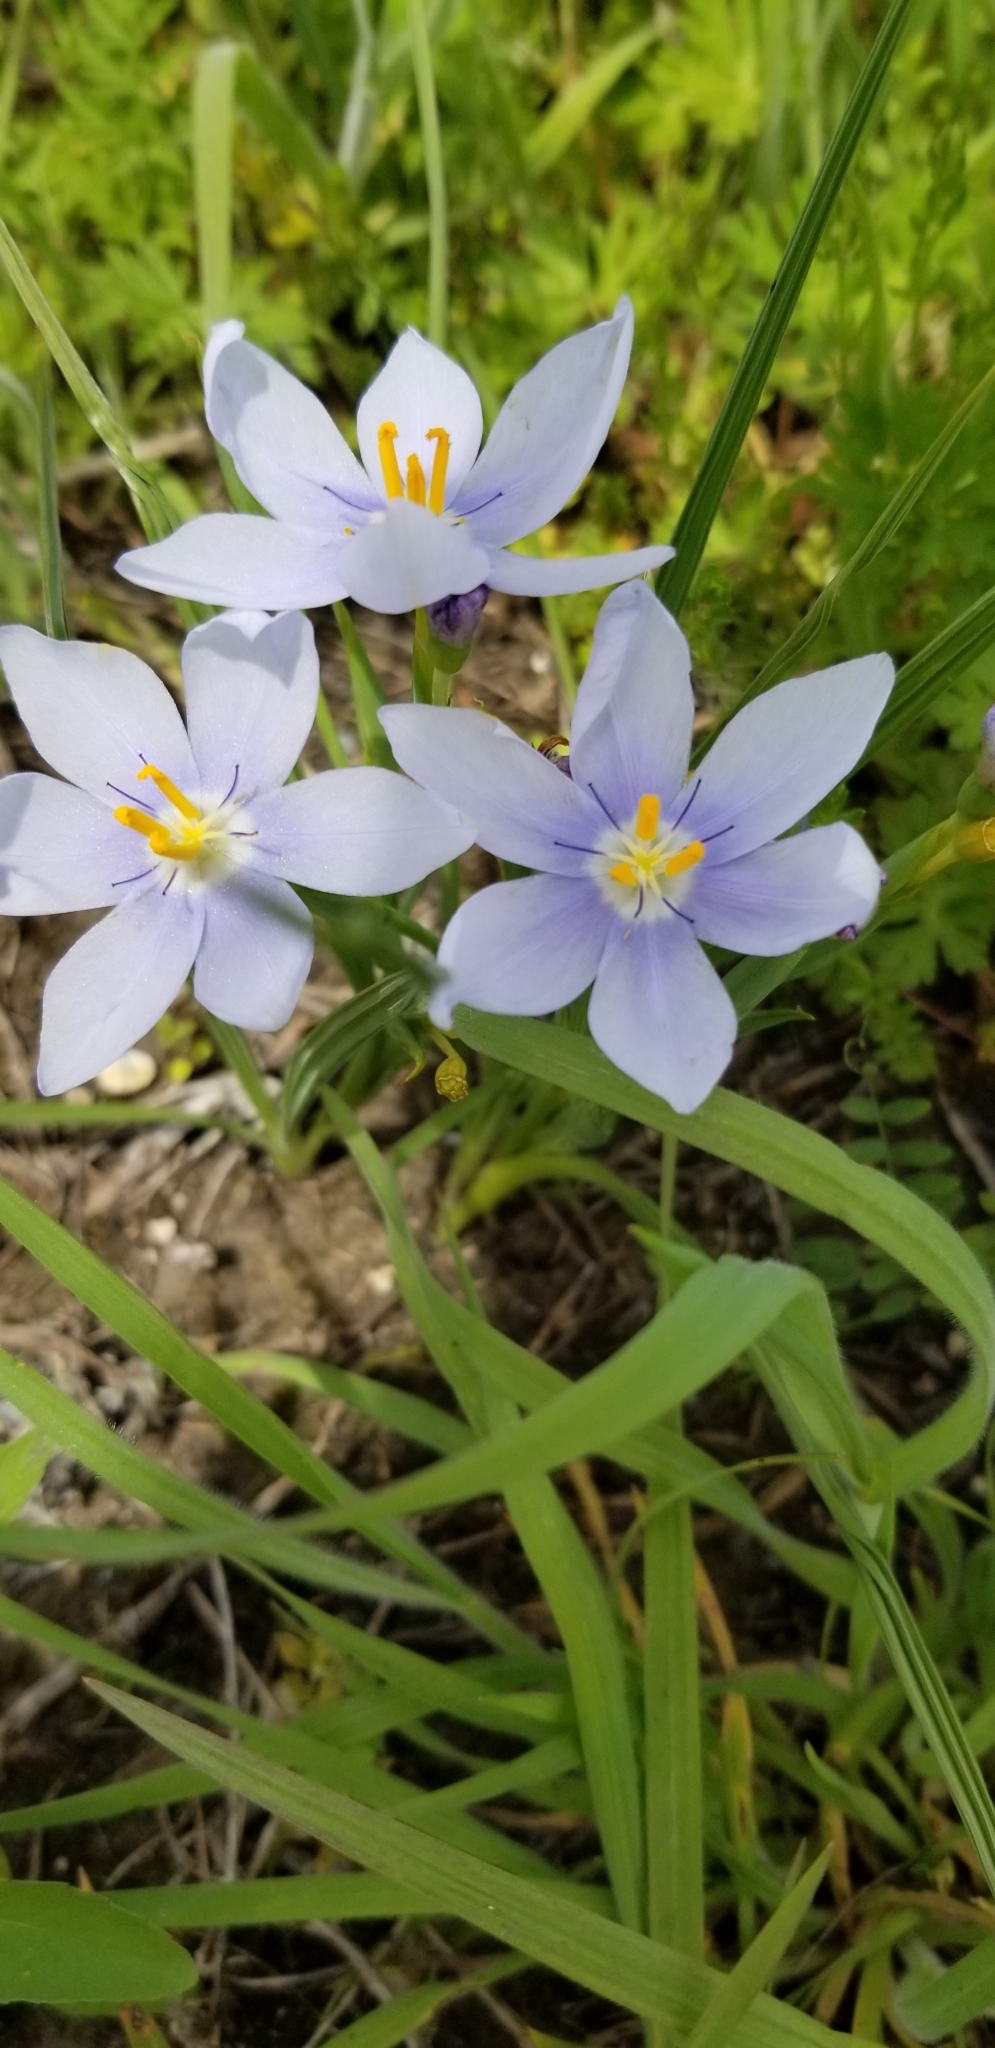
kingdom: Plantae
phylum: Tracheophyta
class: Liliopsida
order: Asparagales
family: Iridaceae
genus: Nemastylis
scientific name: Nemastylis geminiflora
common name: Prairie celestial
